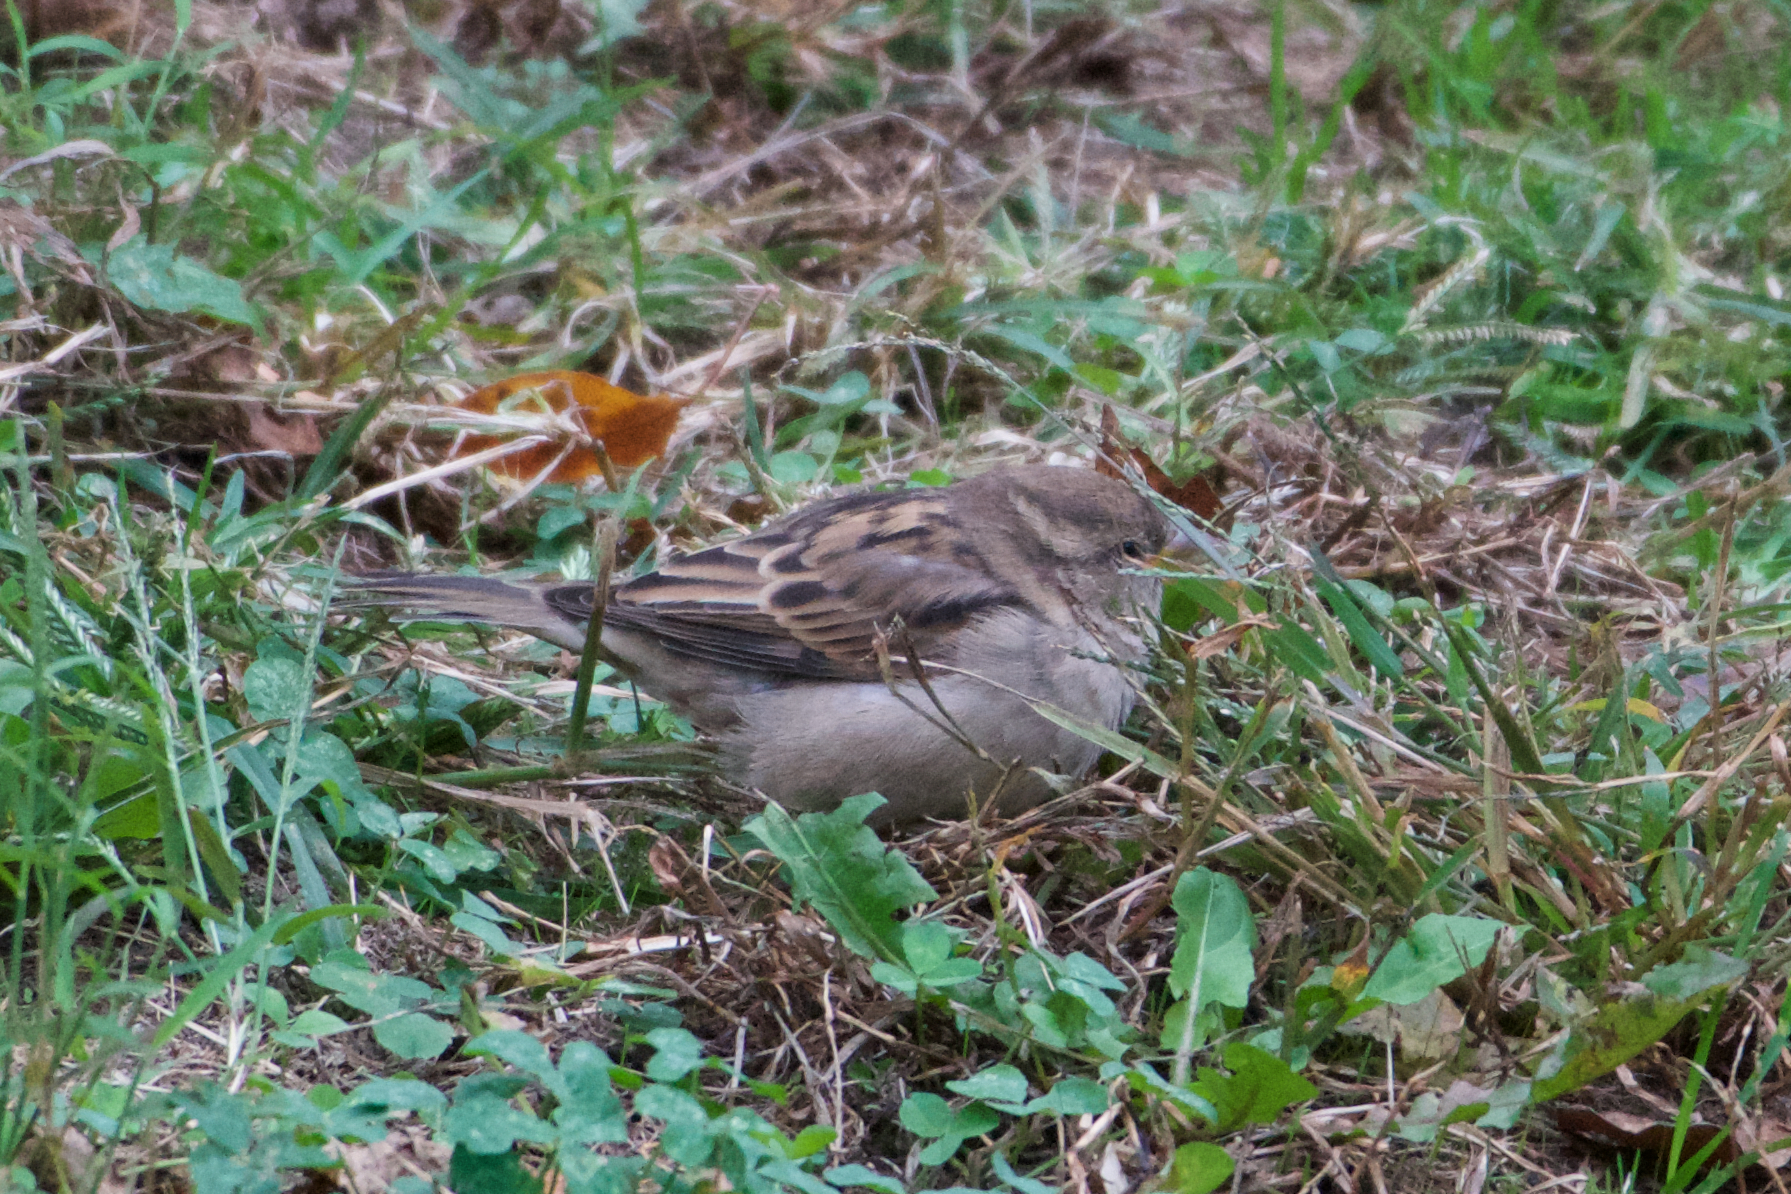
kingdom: Animalia
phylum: Chordata
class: Aves
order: Passeriformes
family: Passeridae
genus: Passer
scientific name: Passer domesticus
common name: House sparrow
